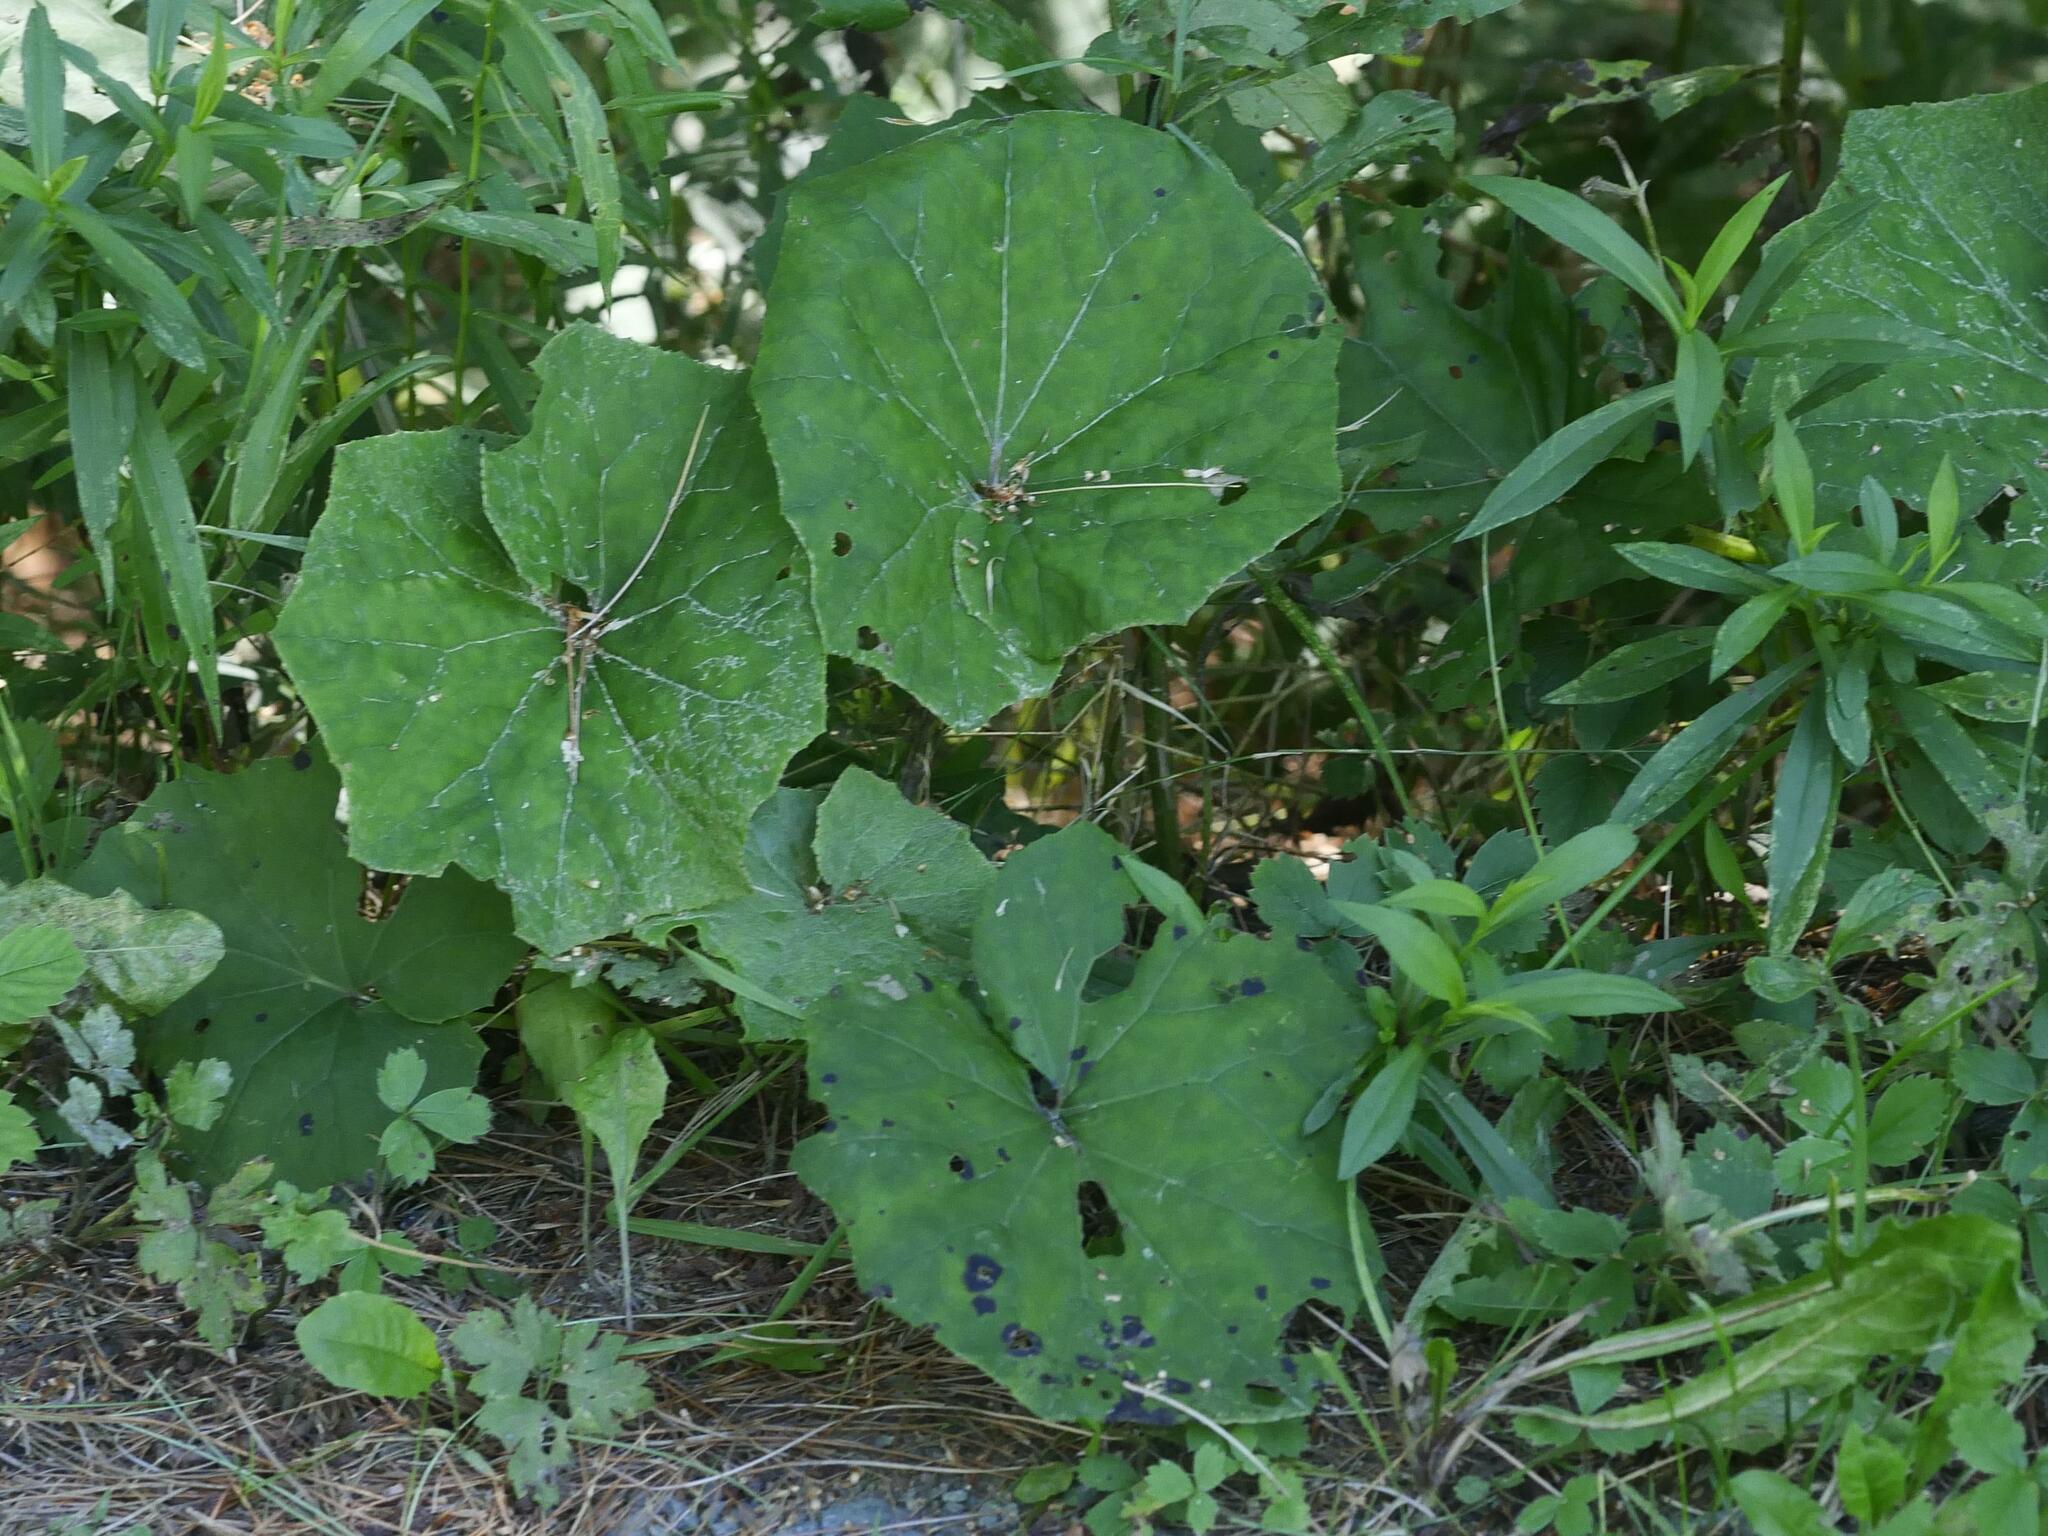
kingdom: Plantae
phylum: Tracheophyta
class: Magnoliopsida
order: Asterales
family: Asteraceae
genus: Tussilago
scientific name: Tussilago farfara
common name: Coltsfoot
